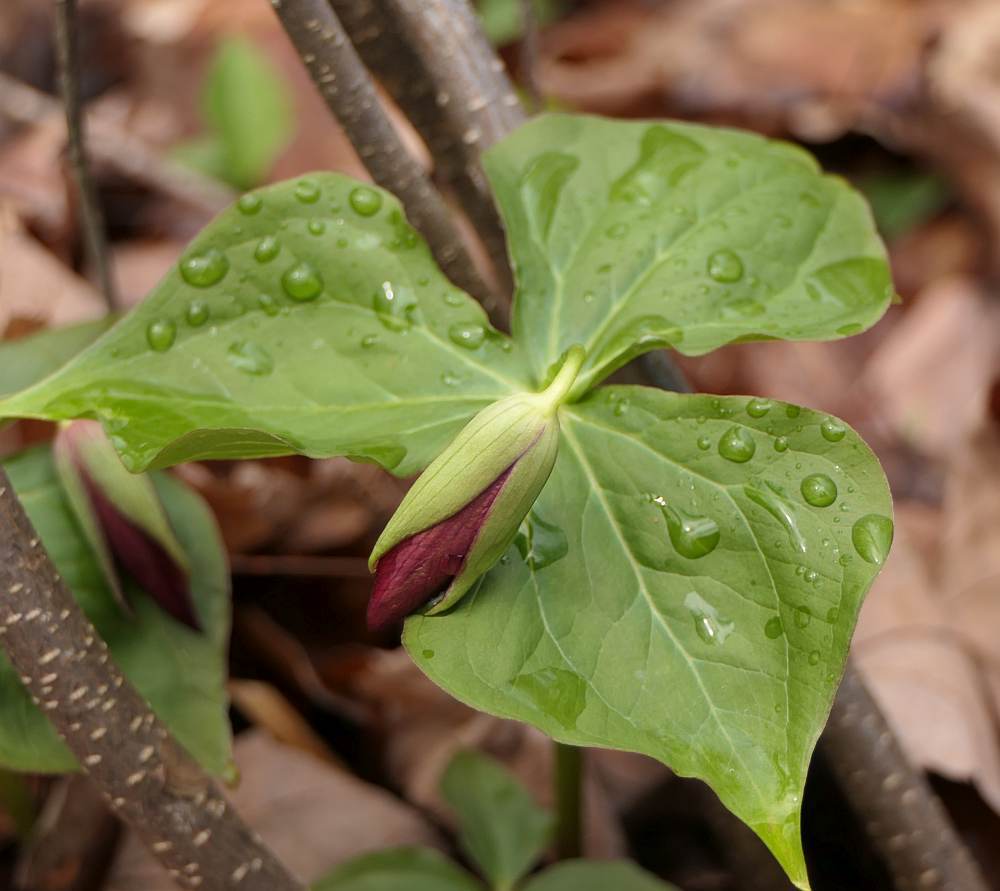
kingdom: Plantae
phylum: Tracheophyta
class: Liliopsida
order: Liliales
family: Melanthiaceae
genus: Trillium
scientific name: Trillium erectum
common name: Purple trillium
